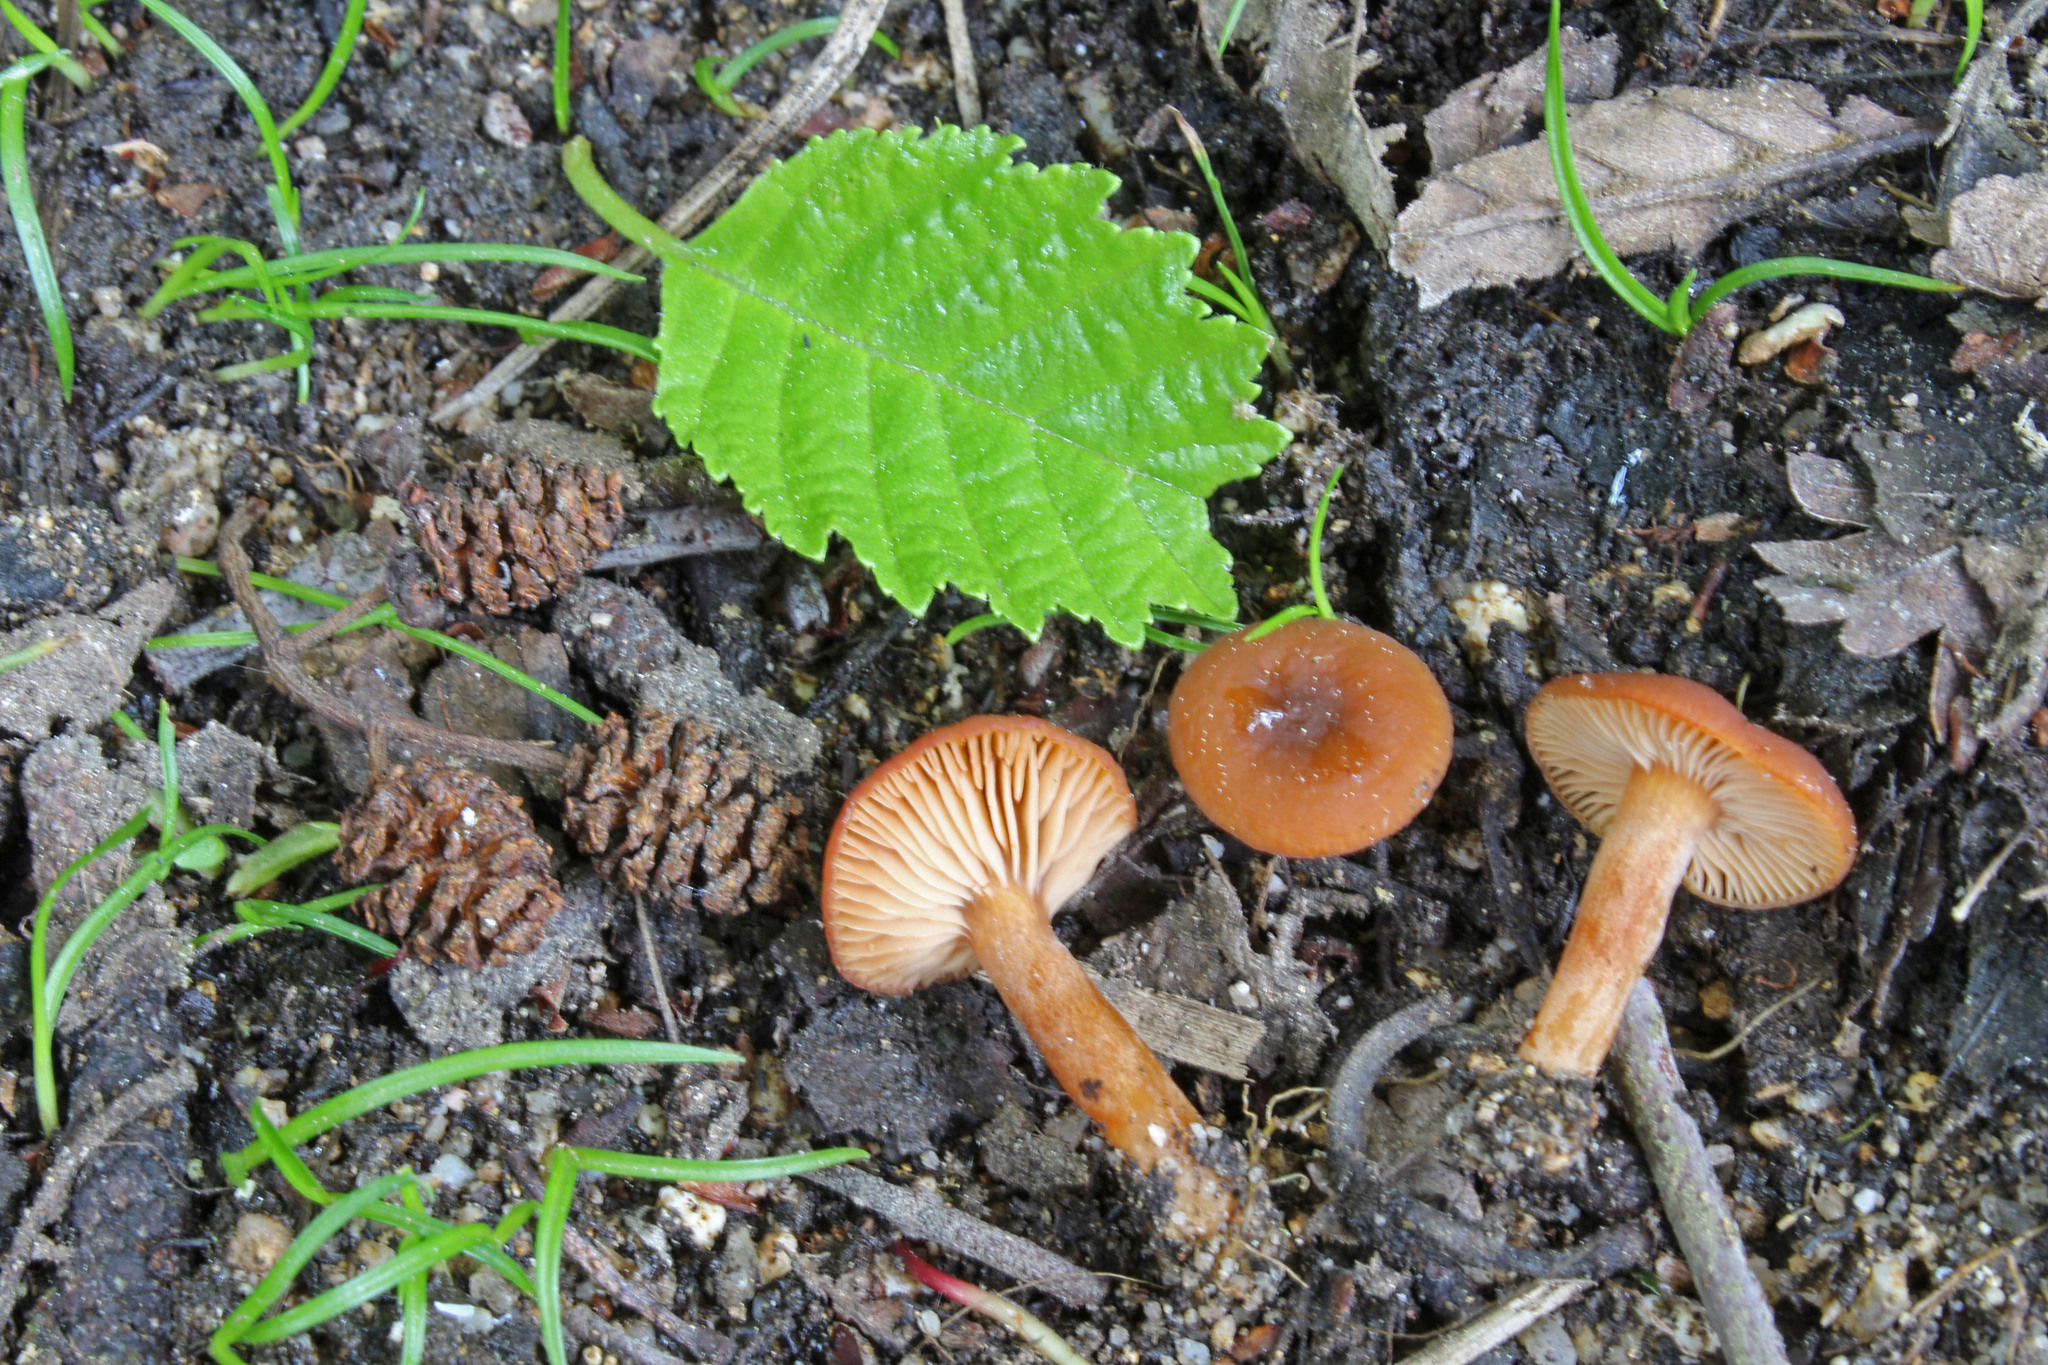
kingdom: Fungi
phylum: Basidiomycota
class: Agaricomycetes
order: Russulales
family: Russulaceae
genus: Lactarius
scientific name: Lactarius obscuratus
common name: Alder milkcap
